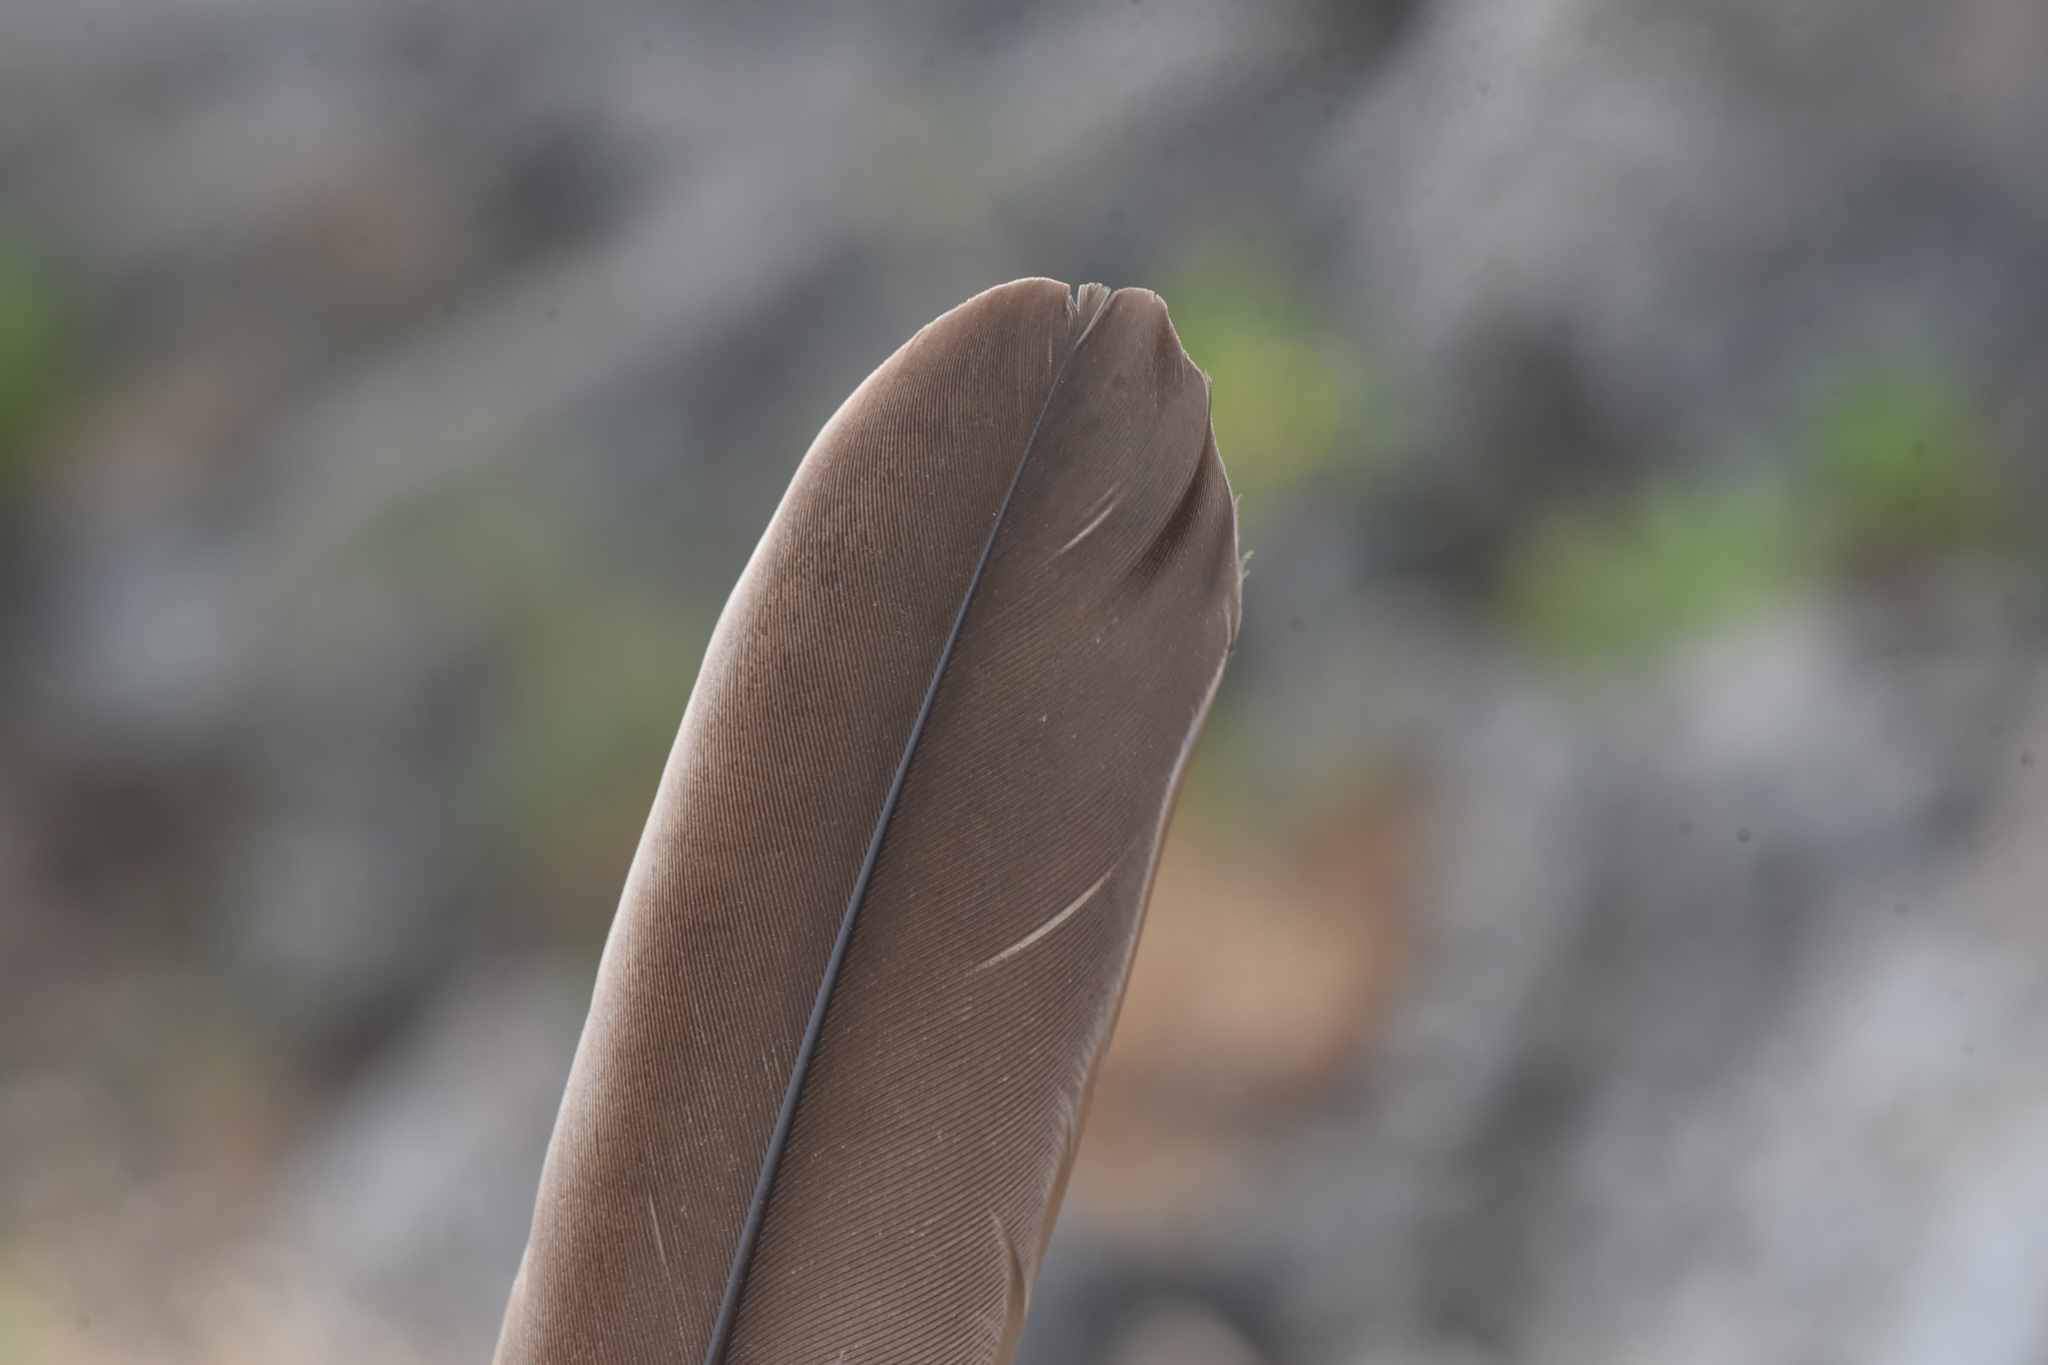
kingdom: Animalia
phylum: Chordata
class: Aves
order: Anseriformes
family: Anatidae
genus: Branta
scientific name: Branta canadensis
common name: Canada goose
